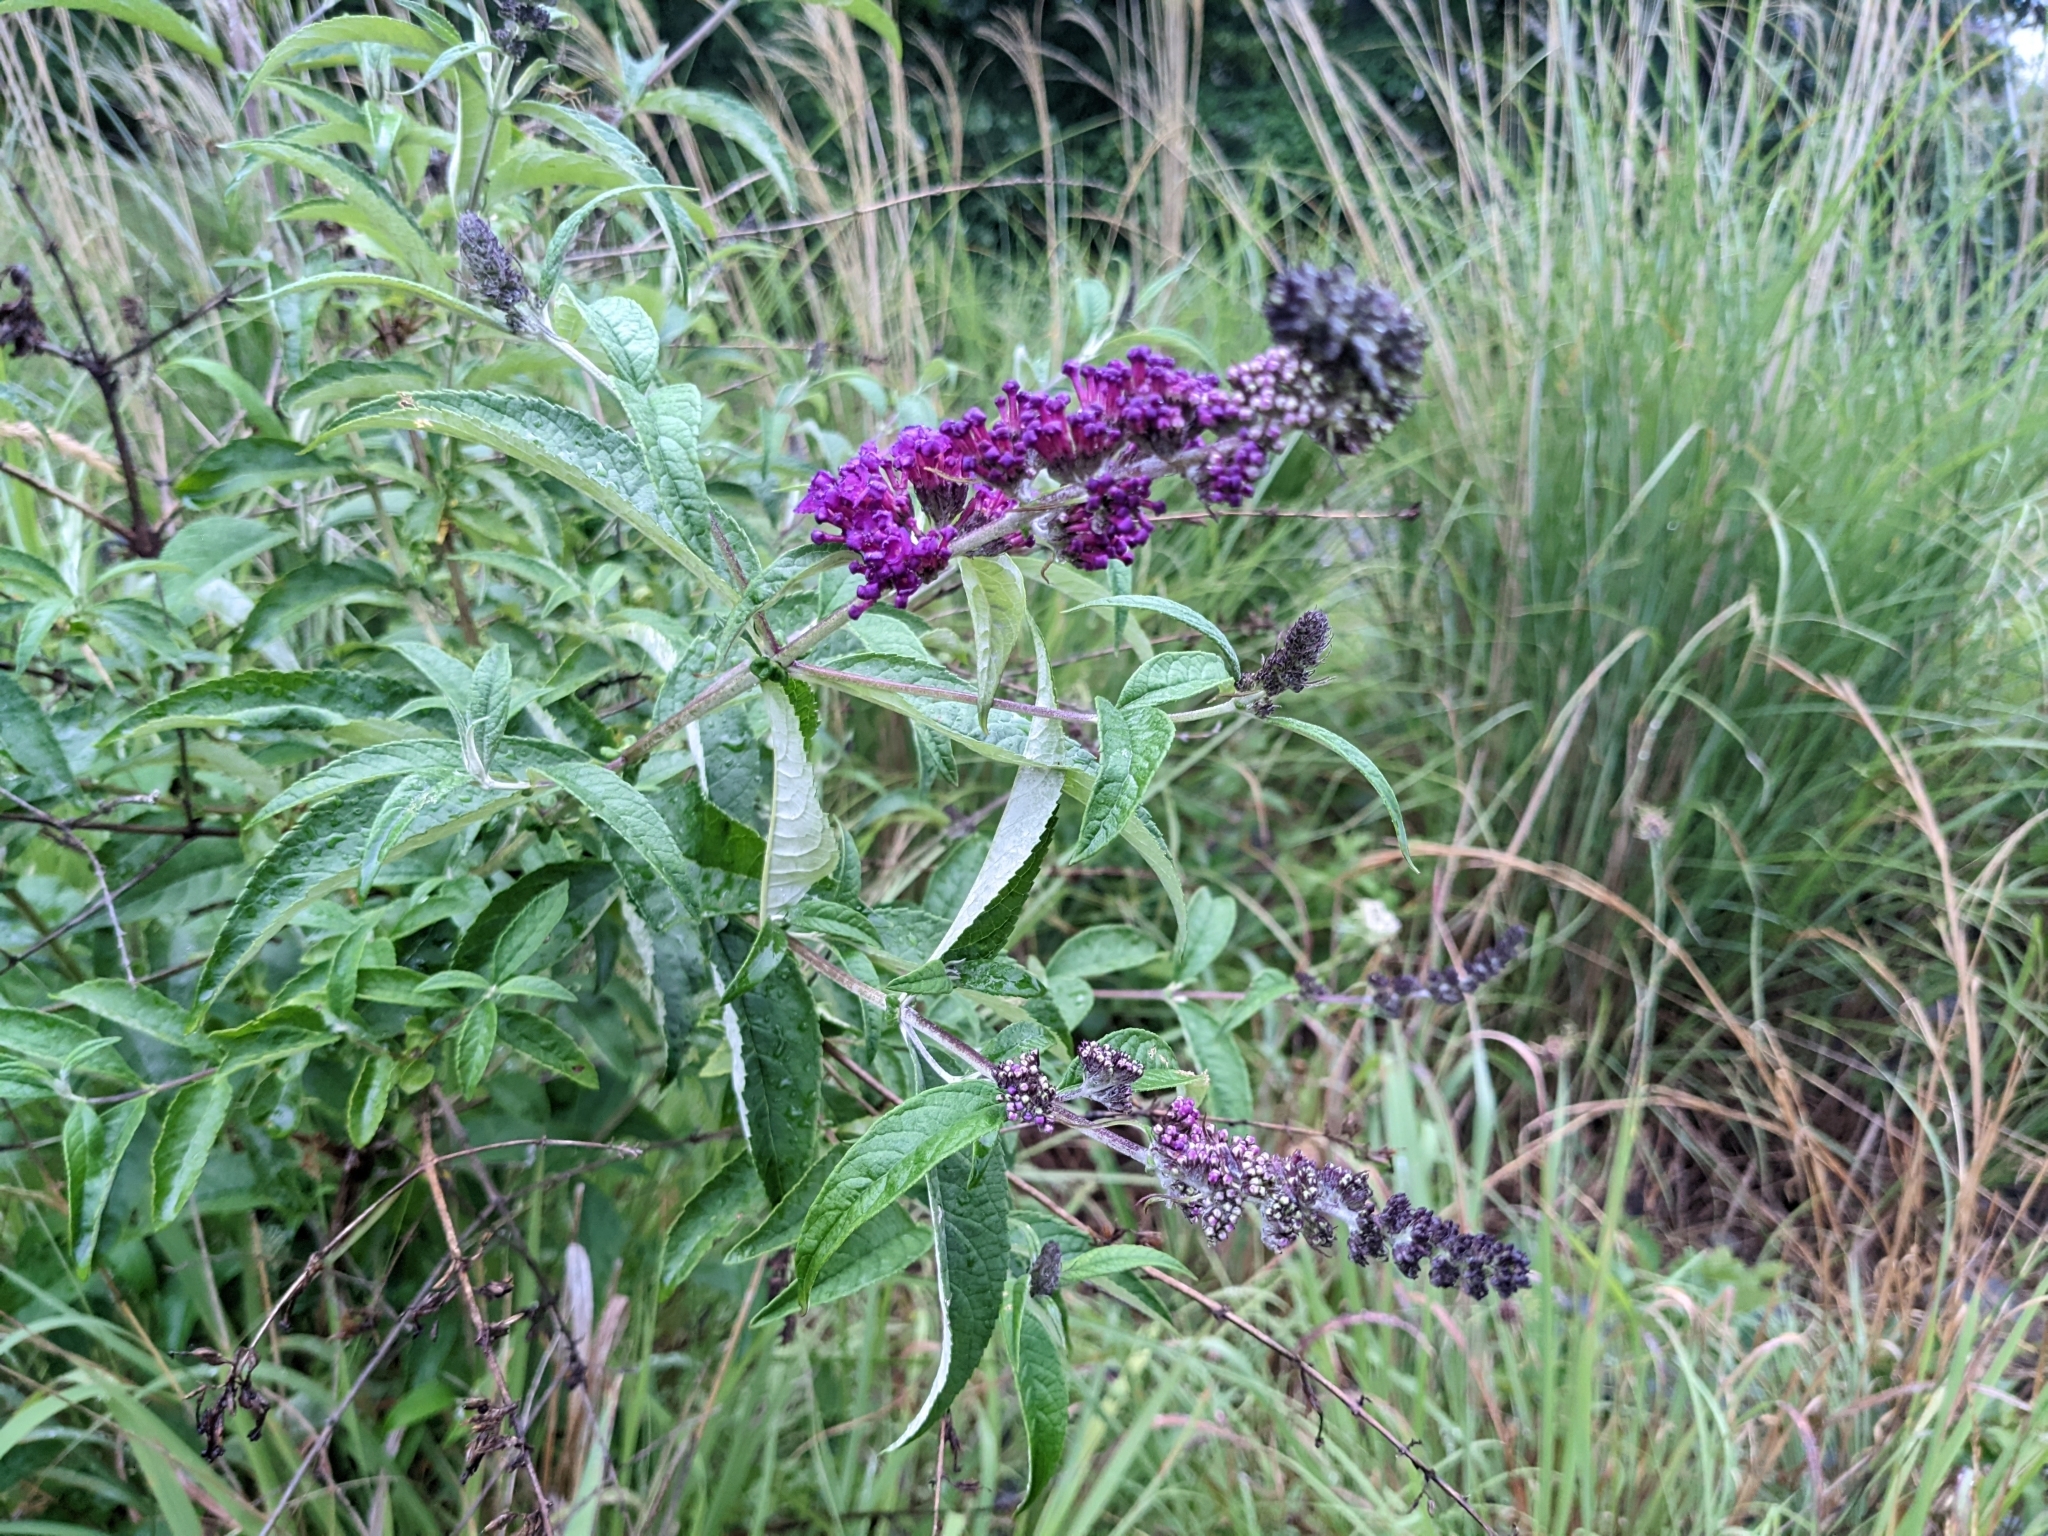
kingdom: Plantae
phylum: Tracheophyta
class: Magnoliopsida
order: Lamiales
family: Scrophulariaceae
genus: Buddleja
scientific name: Buddleja davidii
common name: Butterfly-bush
